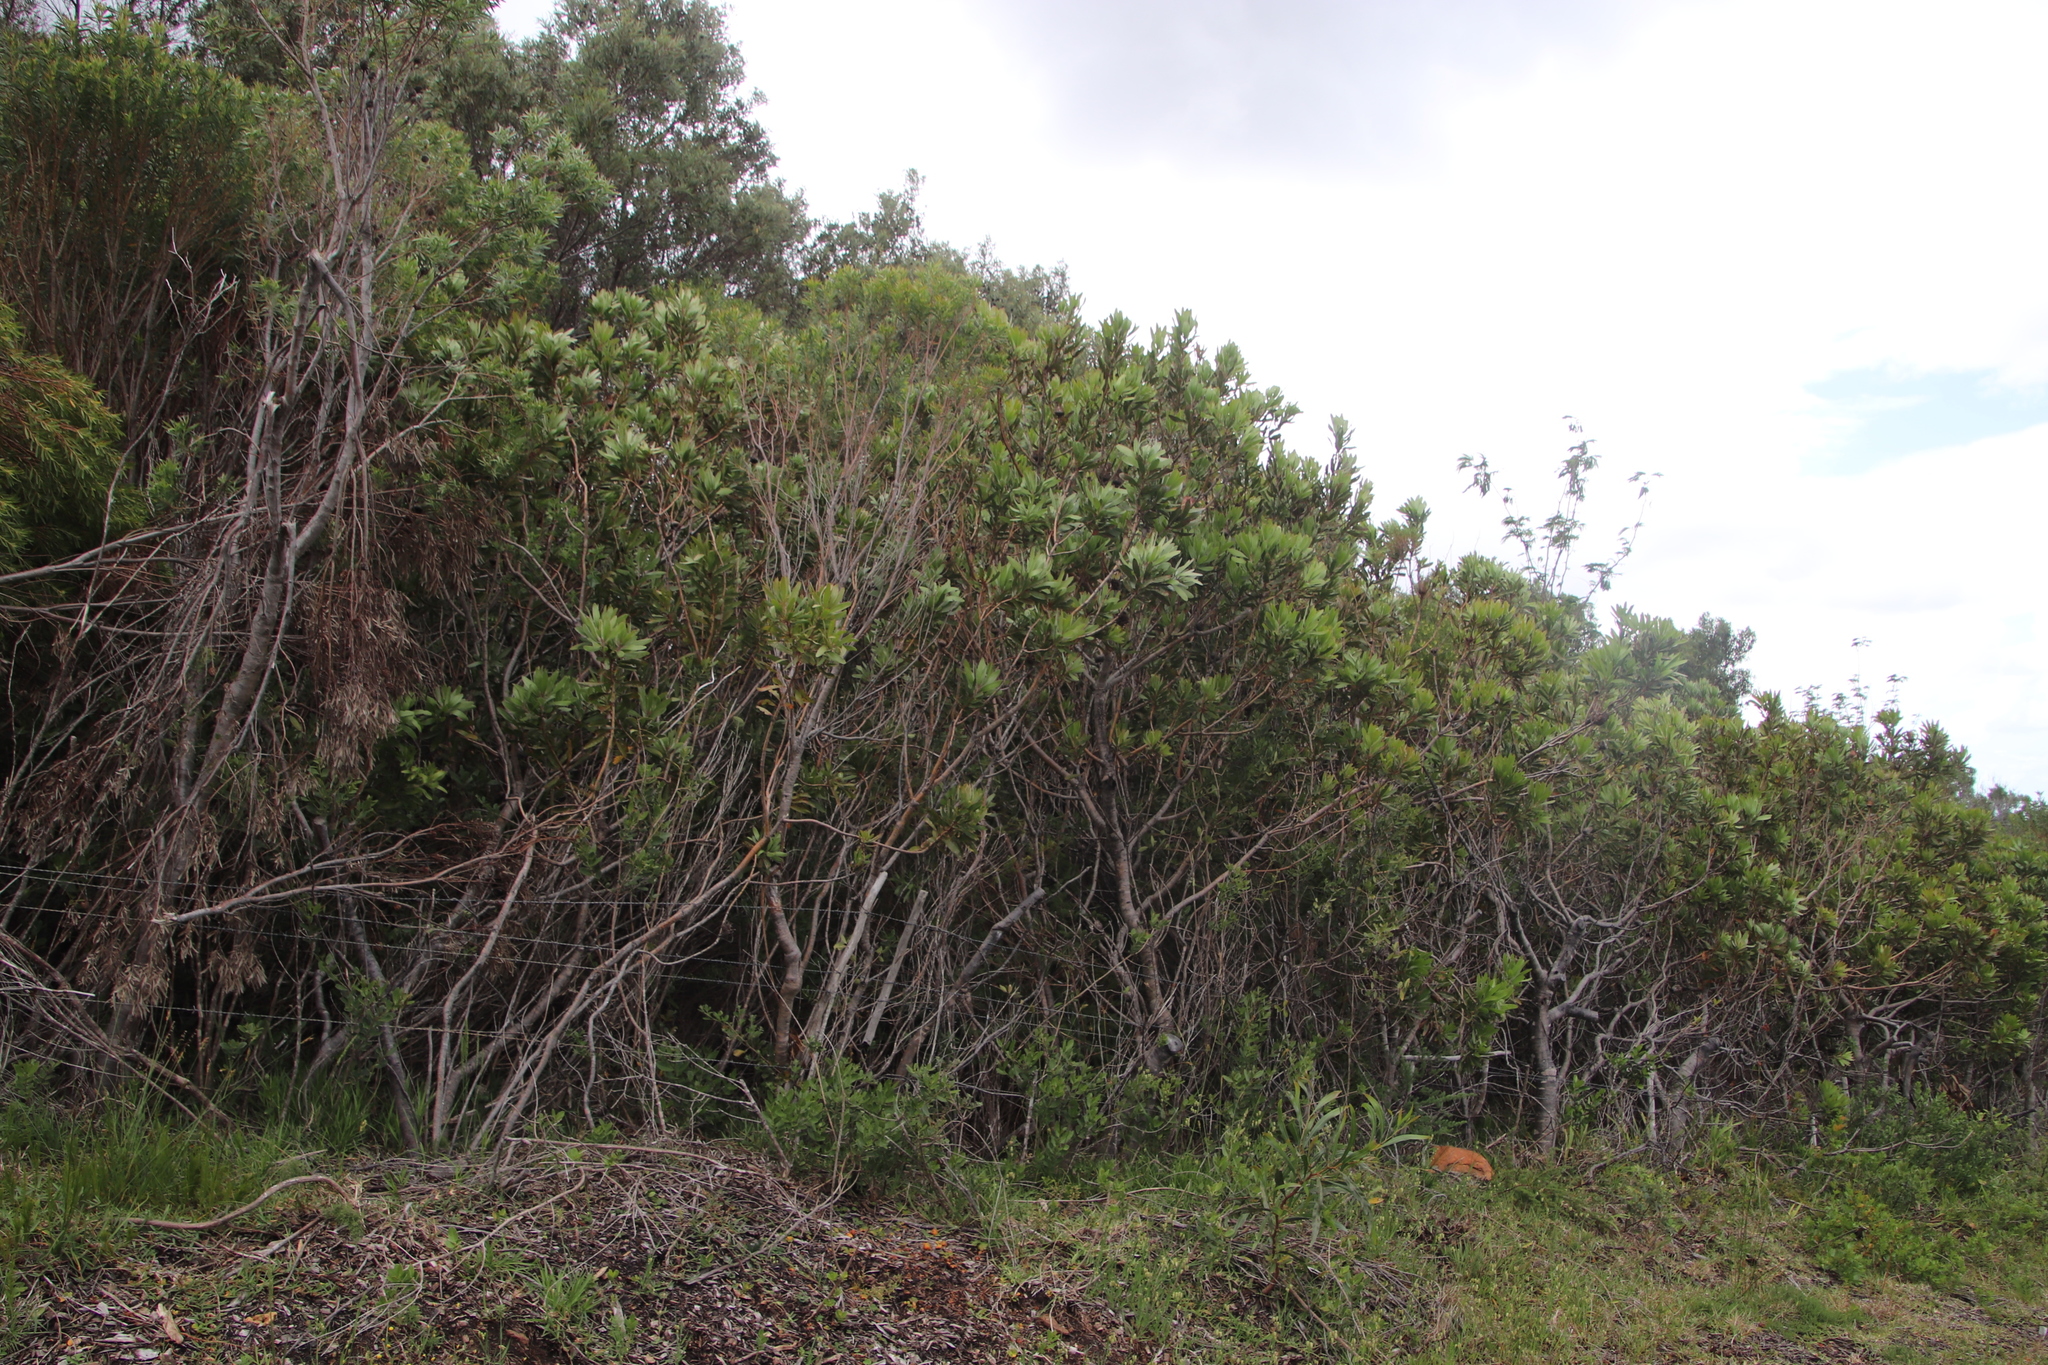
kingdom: Plantae
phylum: Tracheophyta
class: Magnoliopsida
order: Proteales
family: Proteaceae
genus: Protea
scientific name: Protea obtusifolia
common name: Bredasdorp sugarbush
